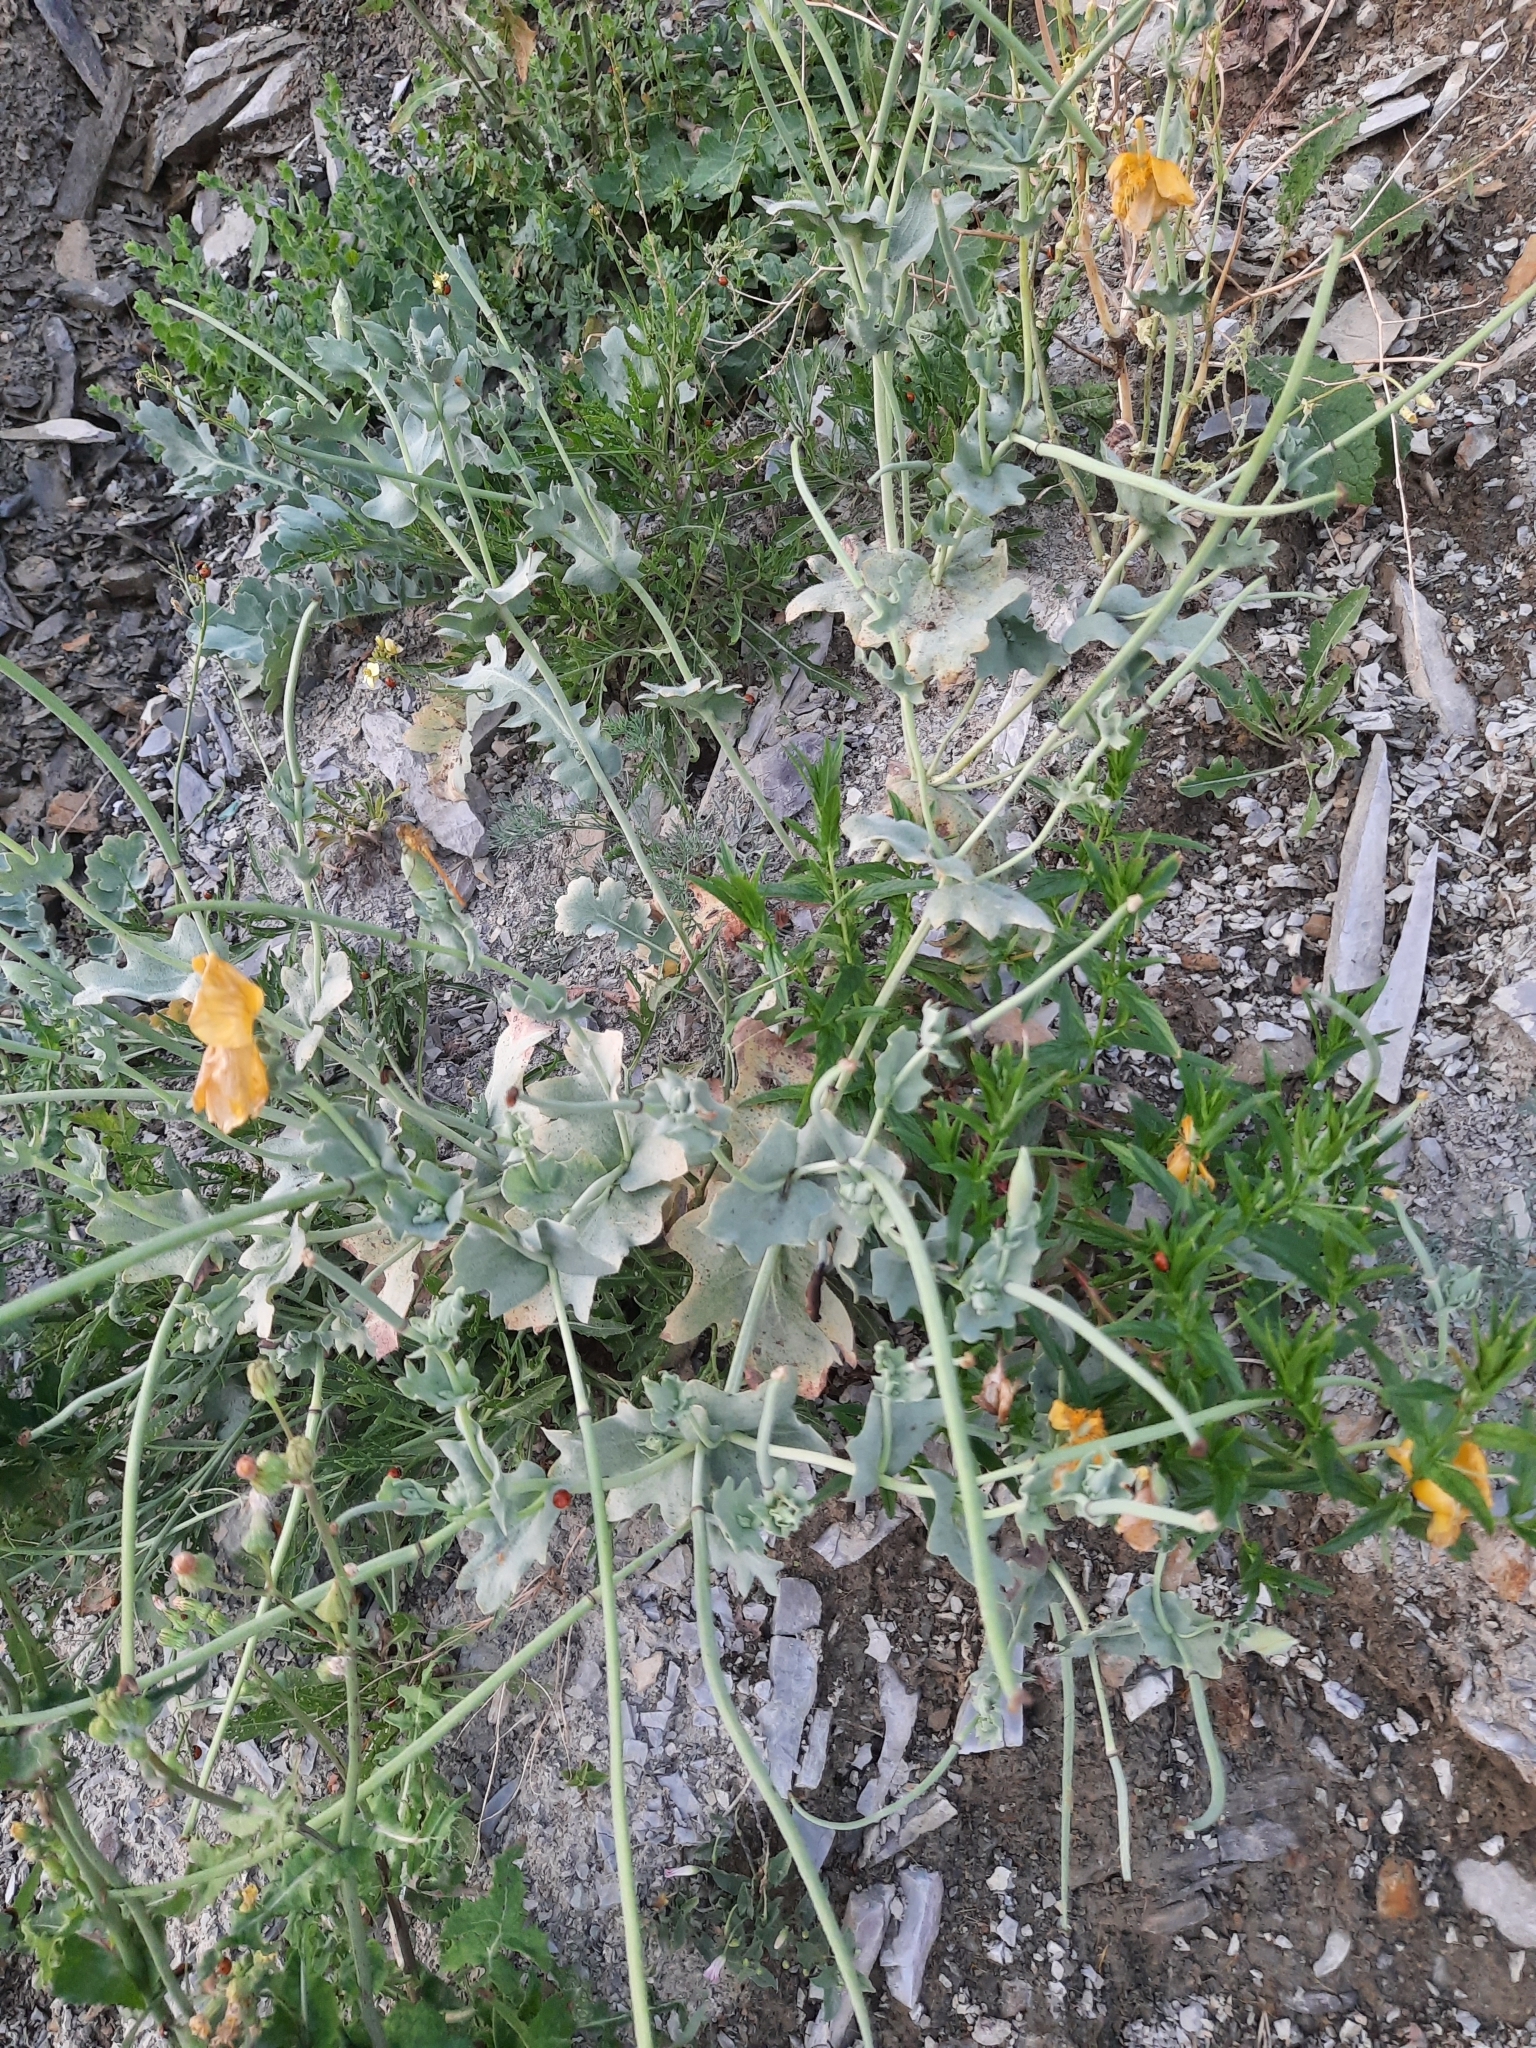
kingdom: Plantae
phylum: Tracheophyta
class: Magnoliopsida
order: Ranunculales
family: Papaveraceae
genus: Glaucium
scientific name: Glaucium flavum
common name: Yellow horned-poppy
